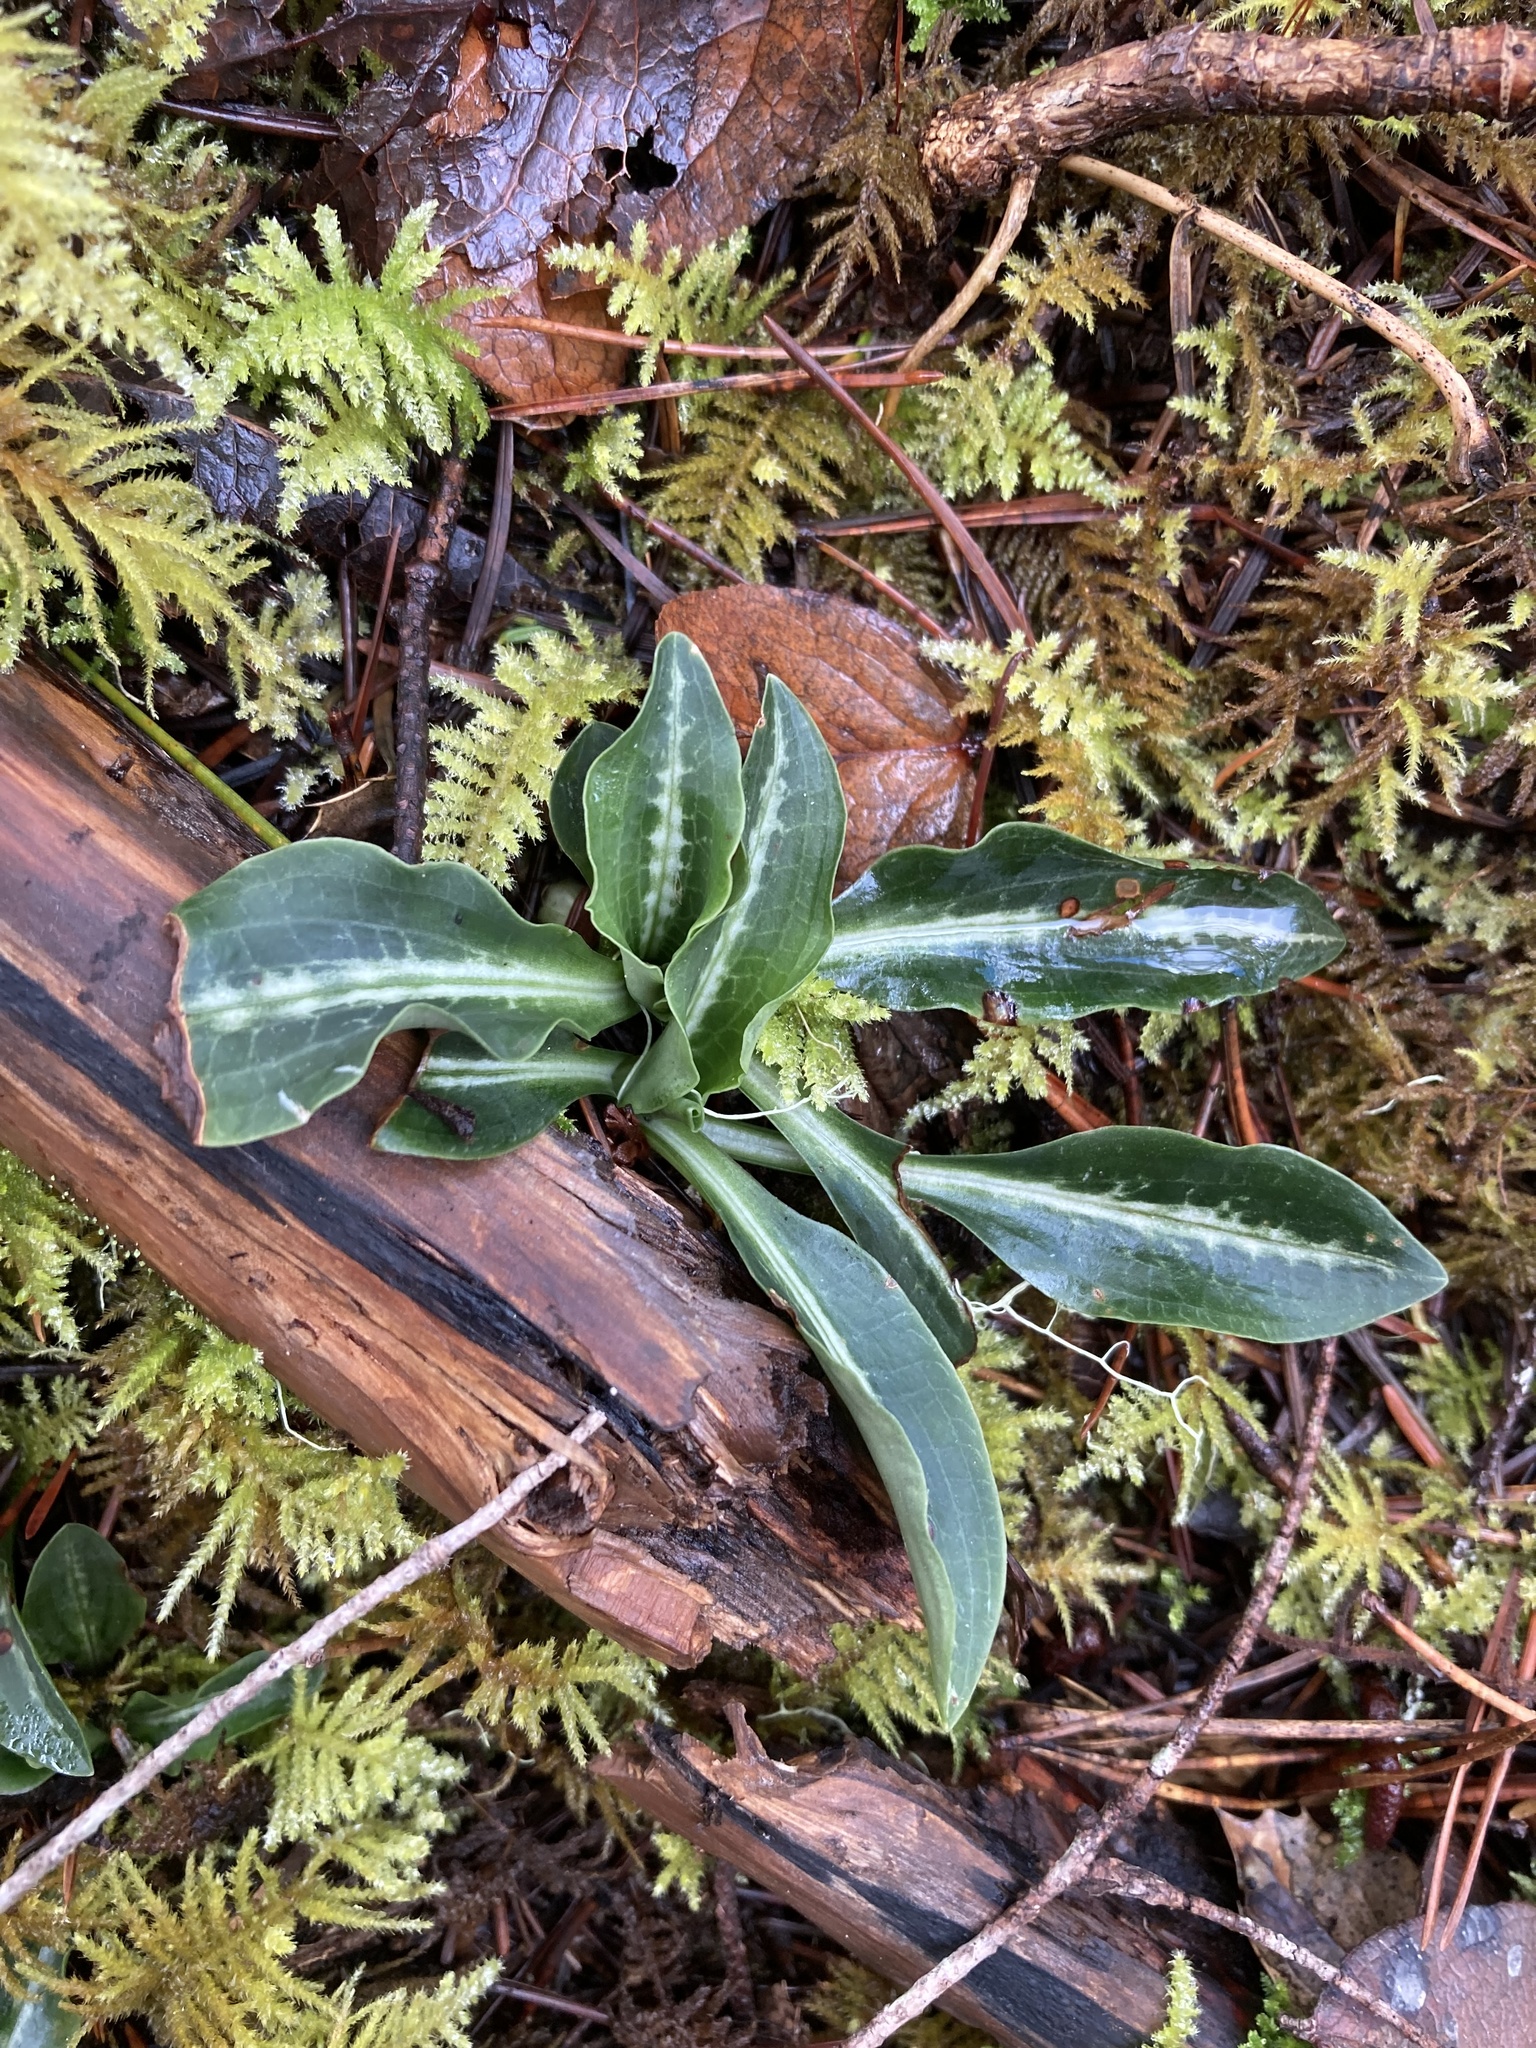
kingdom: Plantae
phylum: Tracheophyta
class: Liliopsida
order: Asparagales
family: Orchidaceae
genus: Goodyera
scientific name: Goodyera oblongifolia
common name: Giant rattlesnake-plantain
